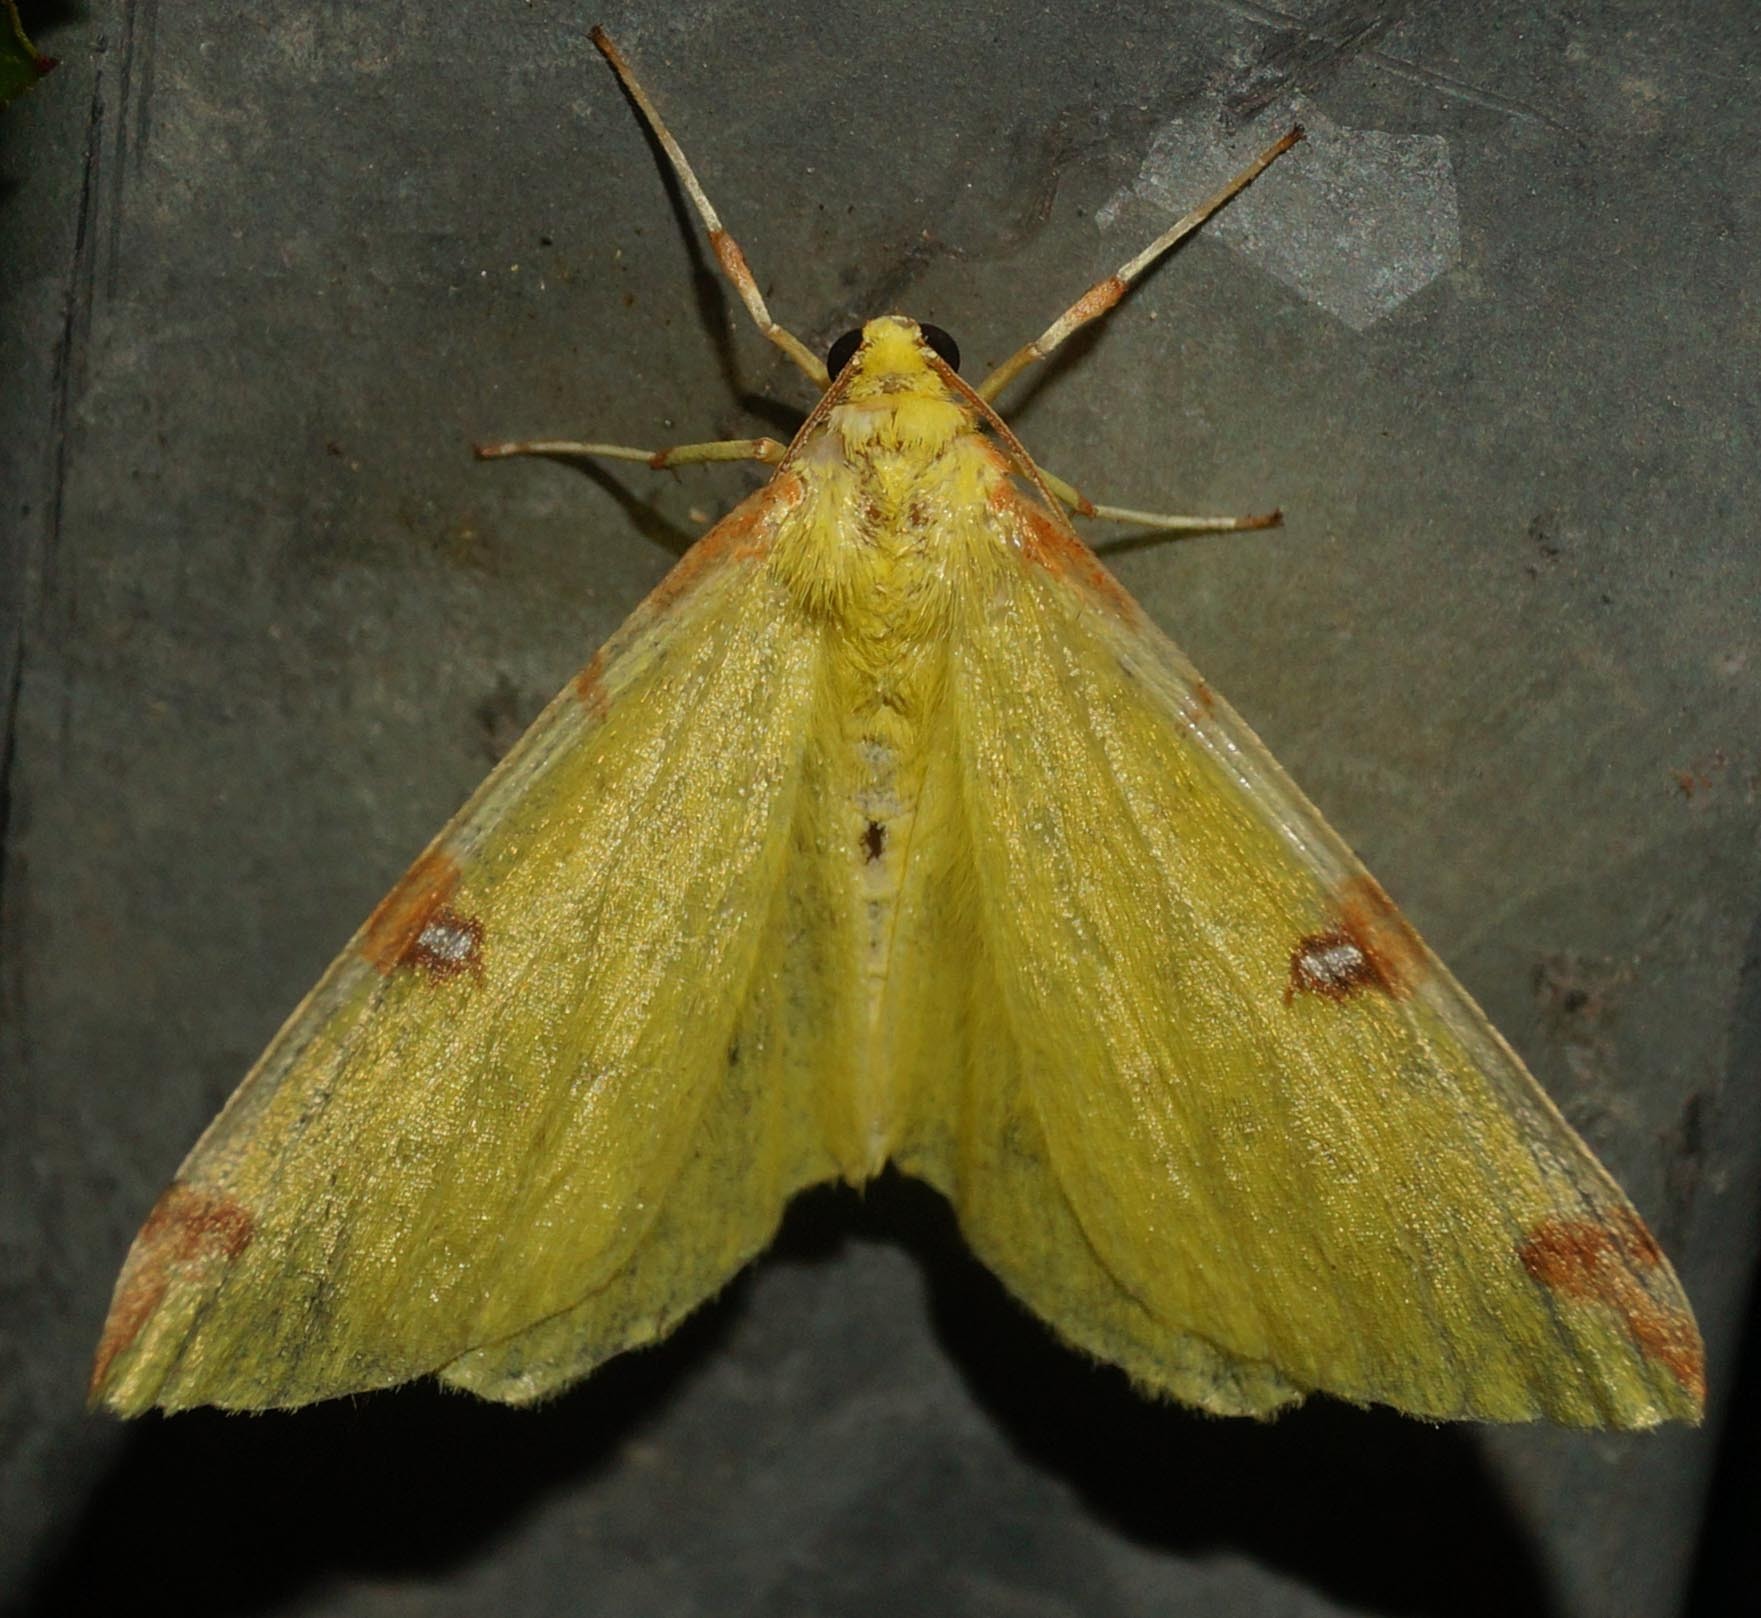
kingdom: Animalia
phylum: Arthropoda
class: Insecta
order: Lepidoptera
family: Geometridae
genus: Opisthograptis
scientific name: Opisthograptis luteolata
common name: Brimstone moth
